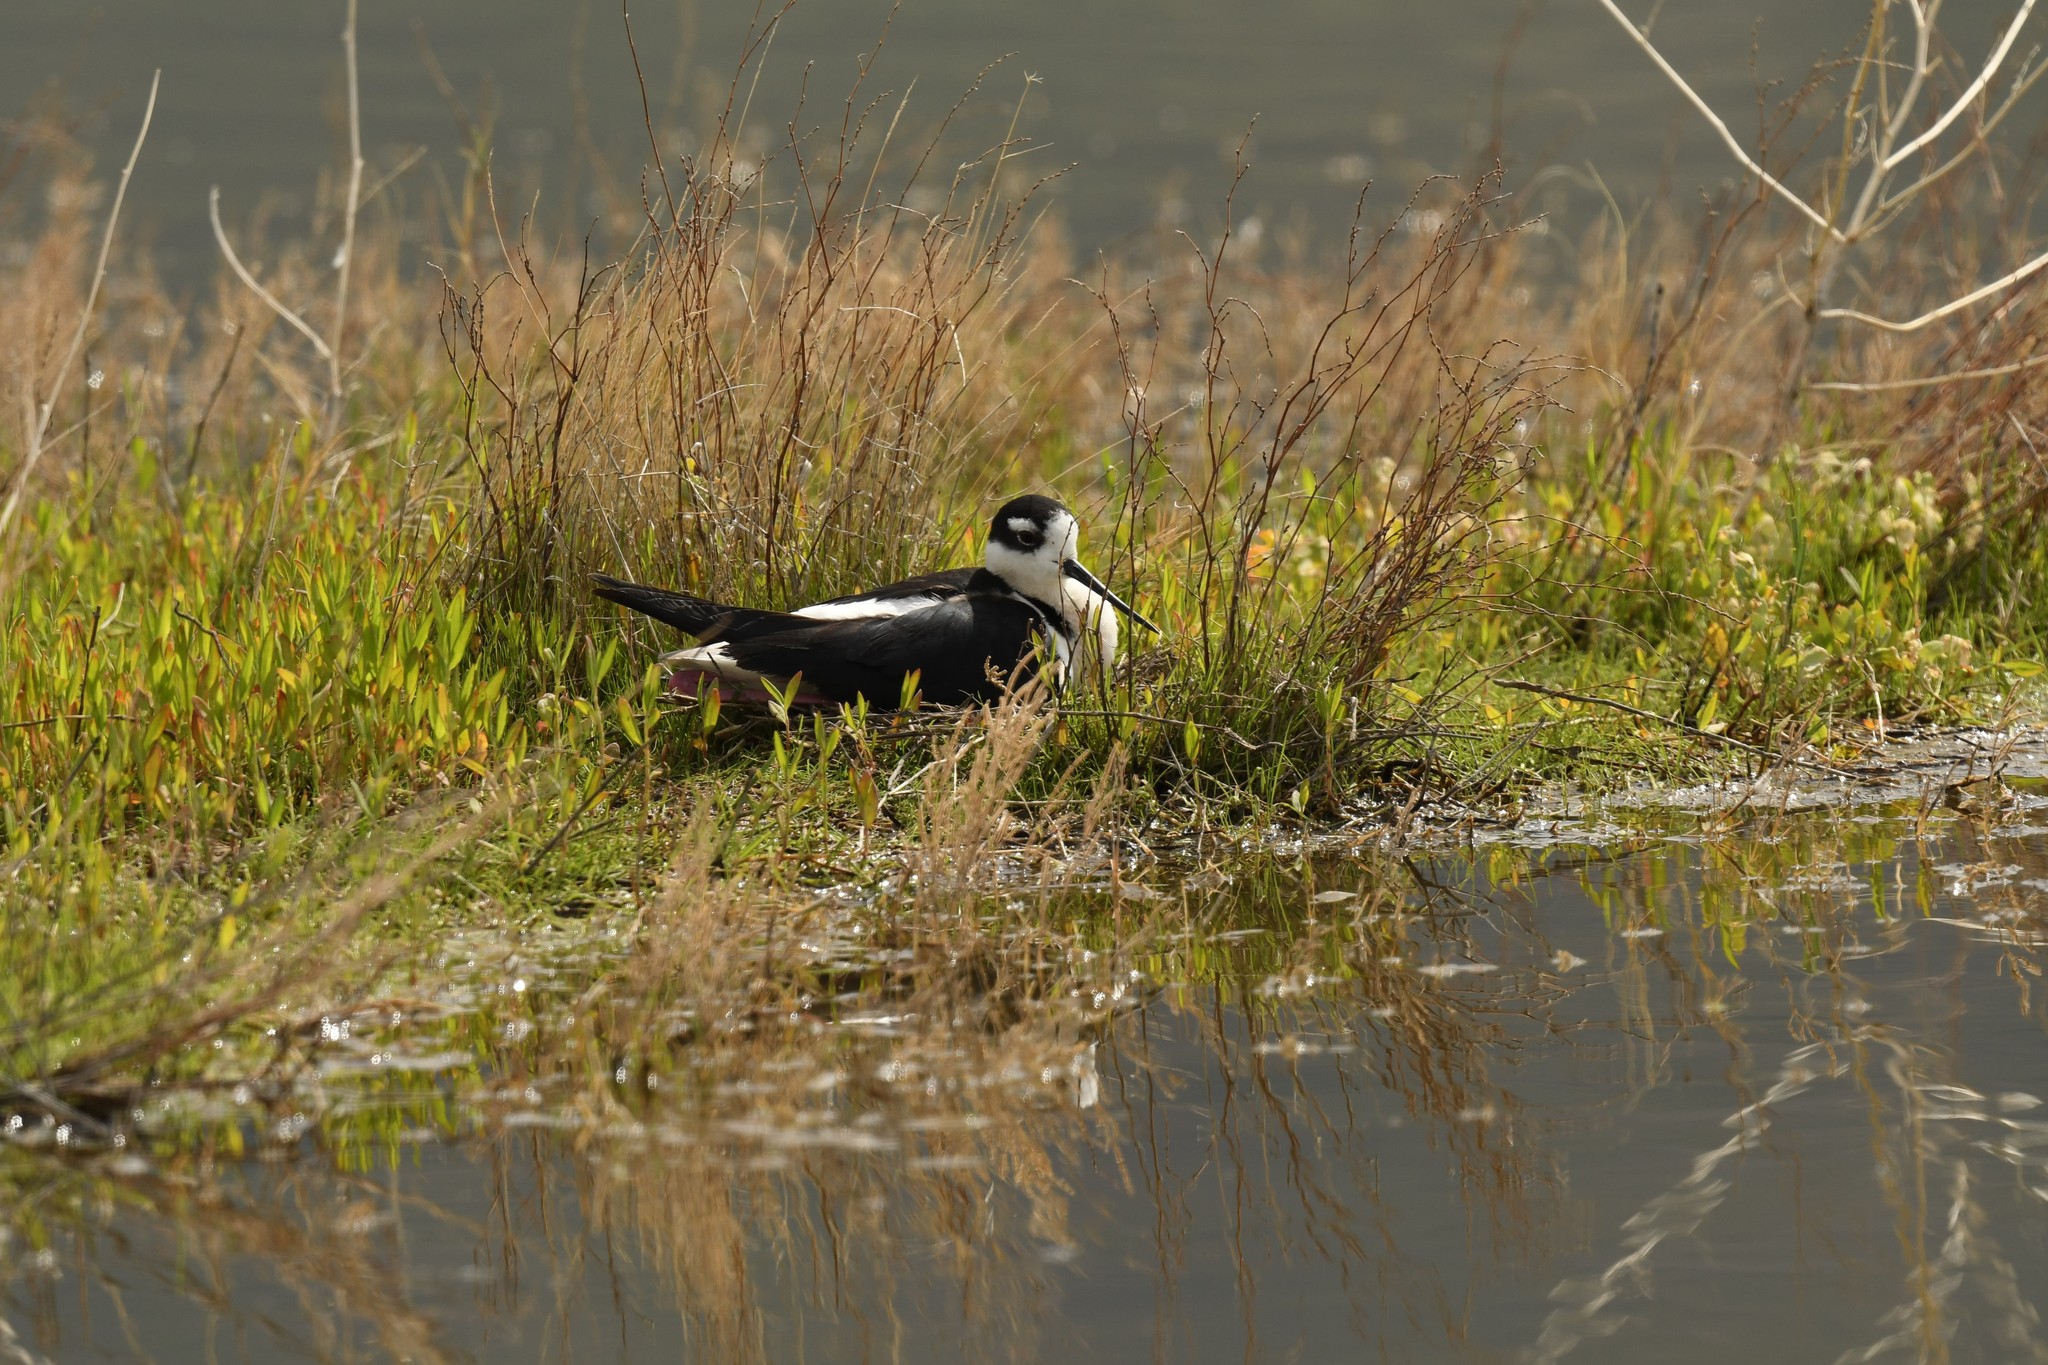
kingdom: Animalia
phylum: Chordata
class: Aves
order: Charadriiformes
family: Recurvirostridae
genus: Himantopus
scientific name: Himantopus mexicanus
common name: Black-necked stilt
